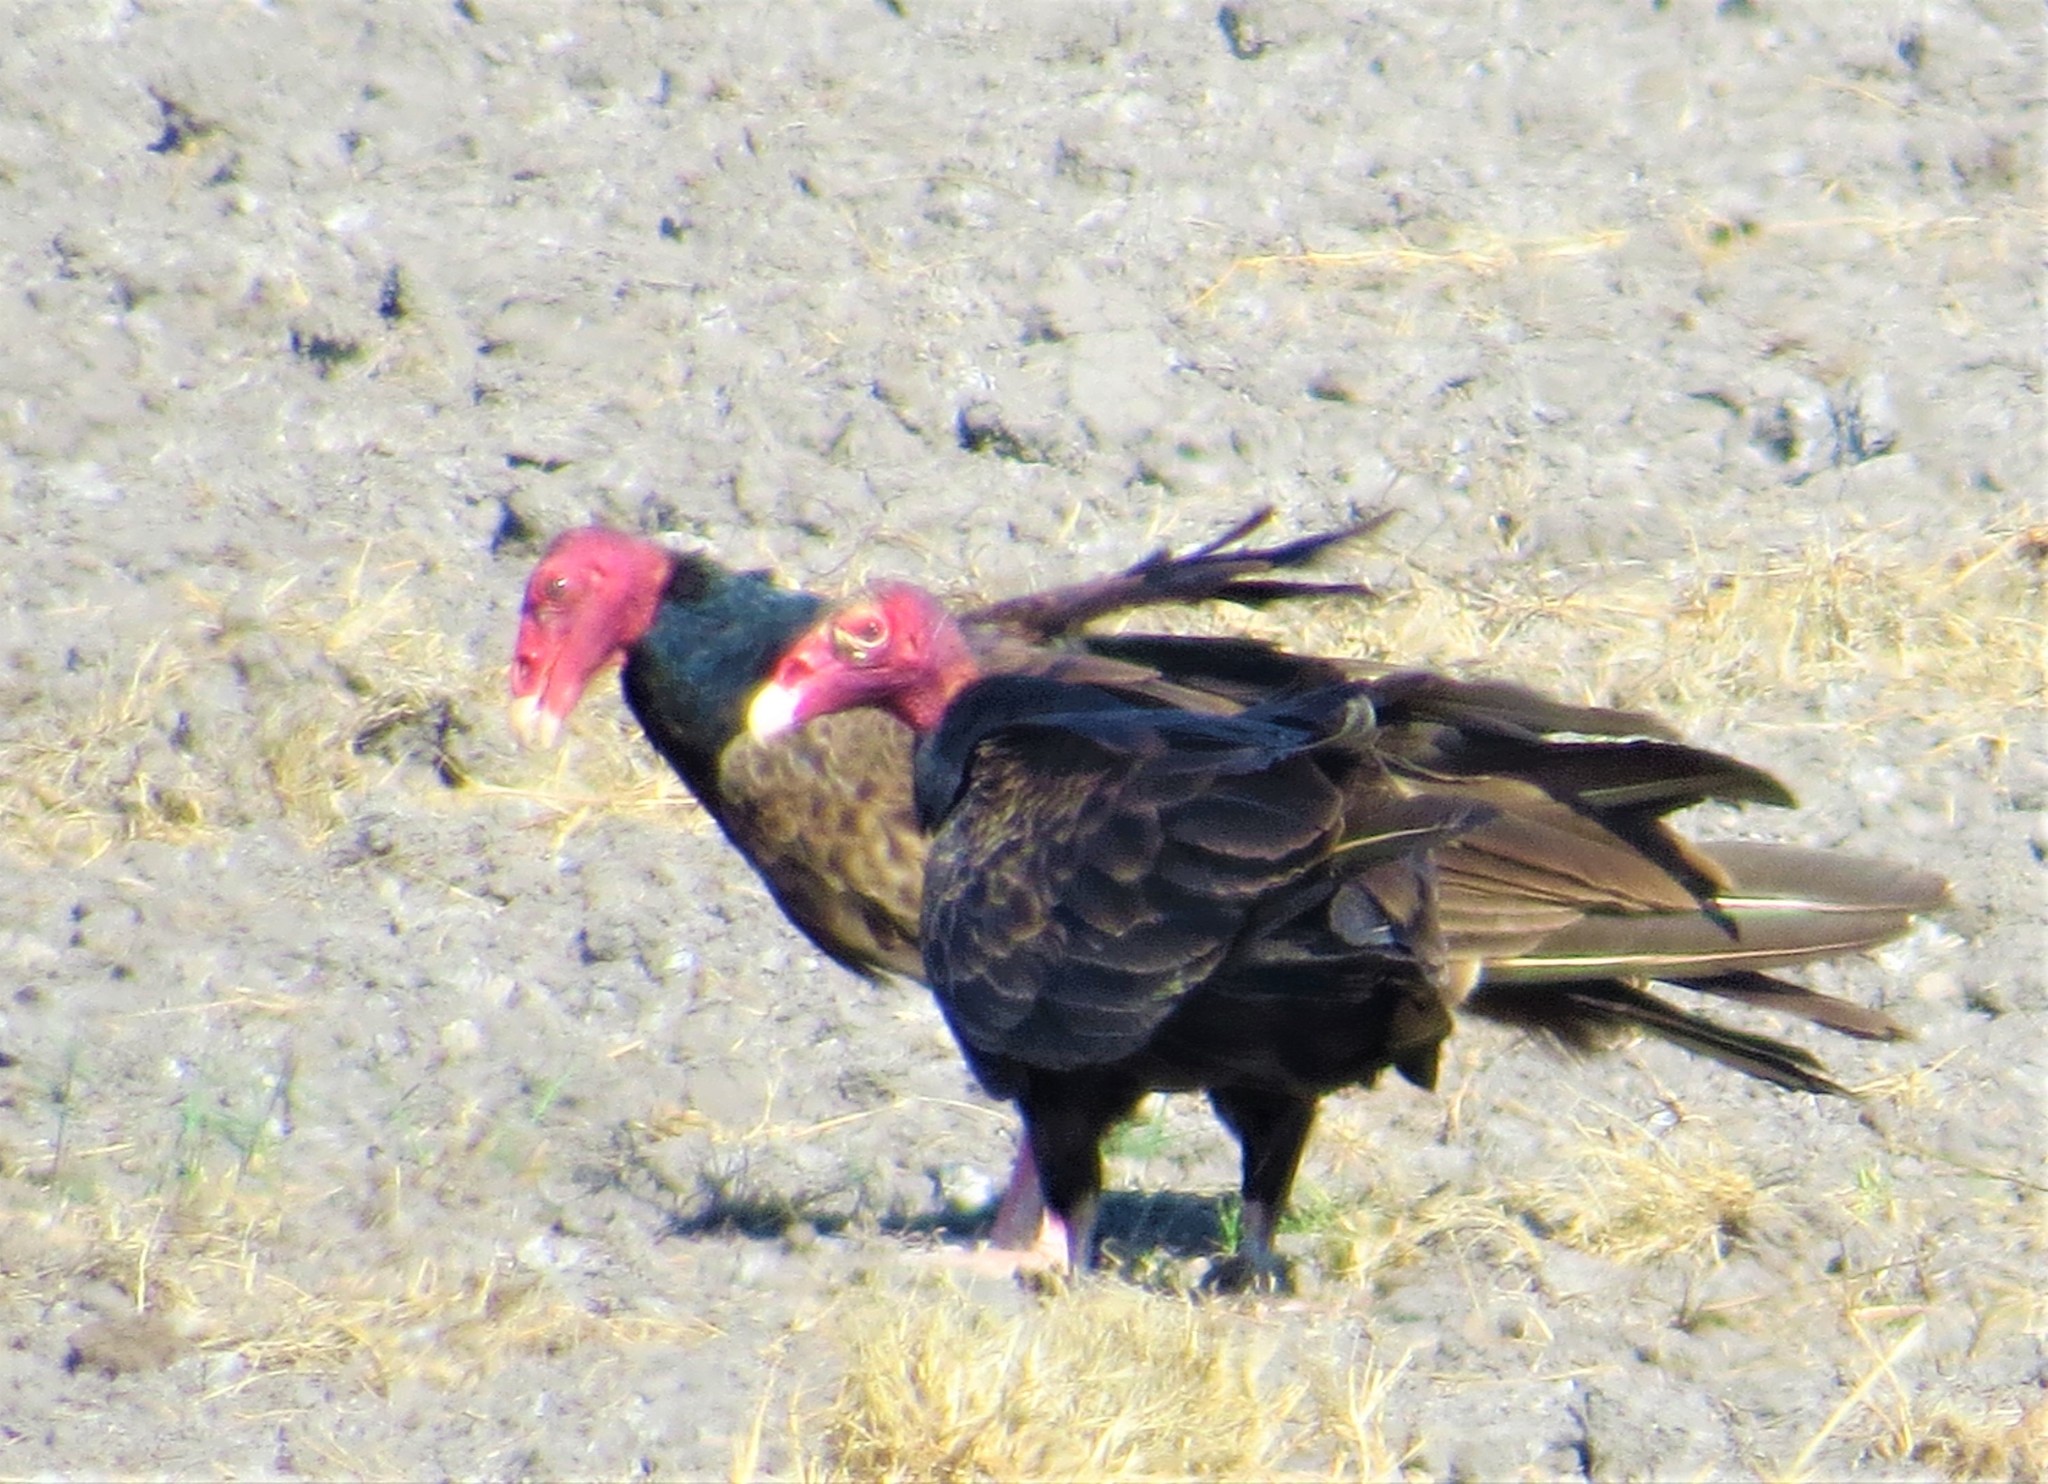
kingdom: Animalia
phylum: Chordata
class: Aves
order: Accipitriformes
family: Cathartidae
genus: Cathartes
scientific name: Cathartes aura
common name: Turkey vulture
